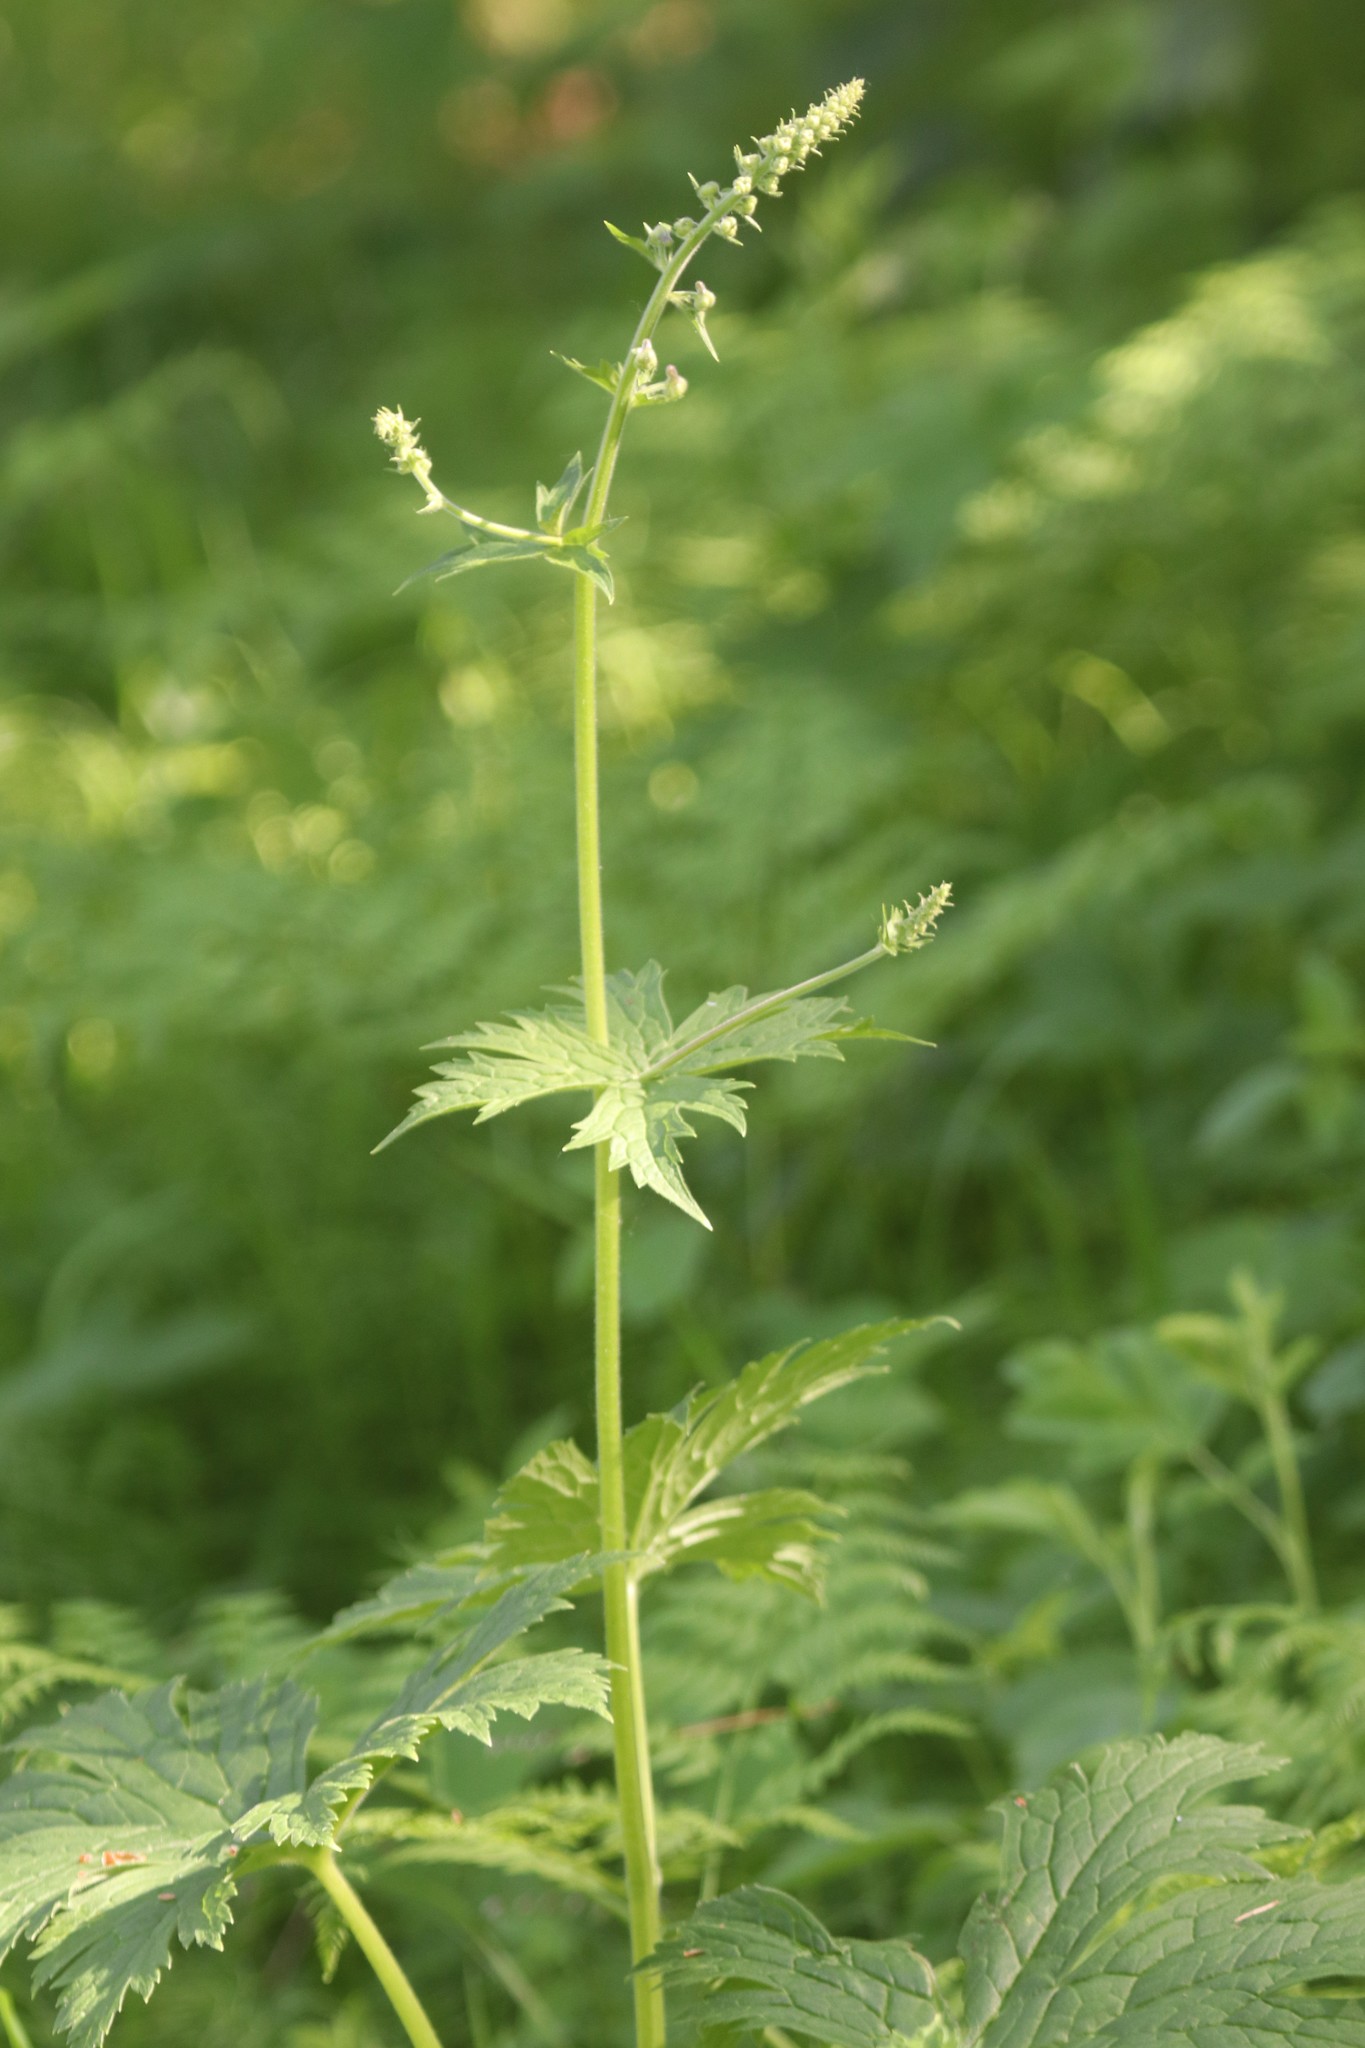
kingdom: Plantae
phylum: Tracheophyta
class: Magnoliopsida
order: Ranunculales
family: Ranunculaceae
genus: Aconitum
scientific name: Aconitum septentrionale
